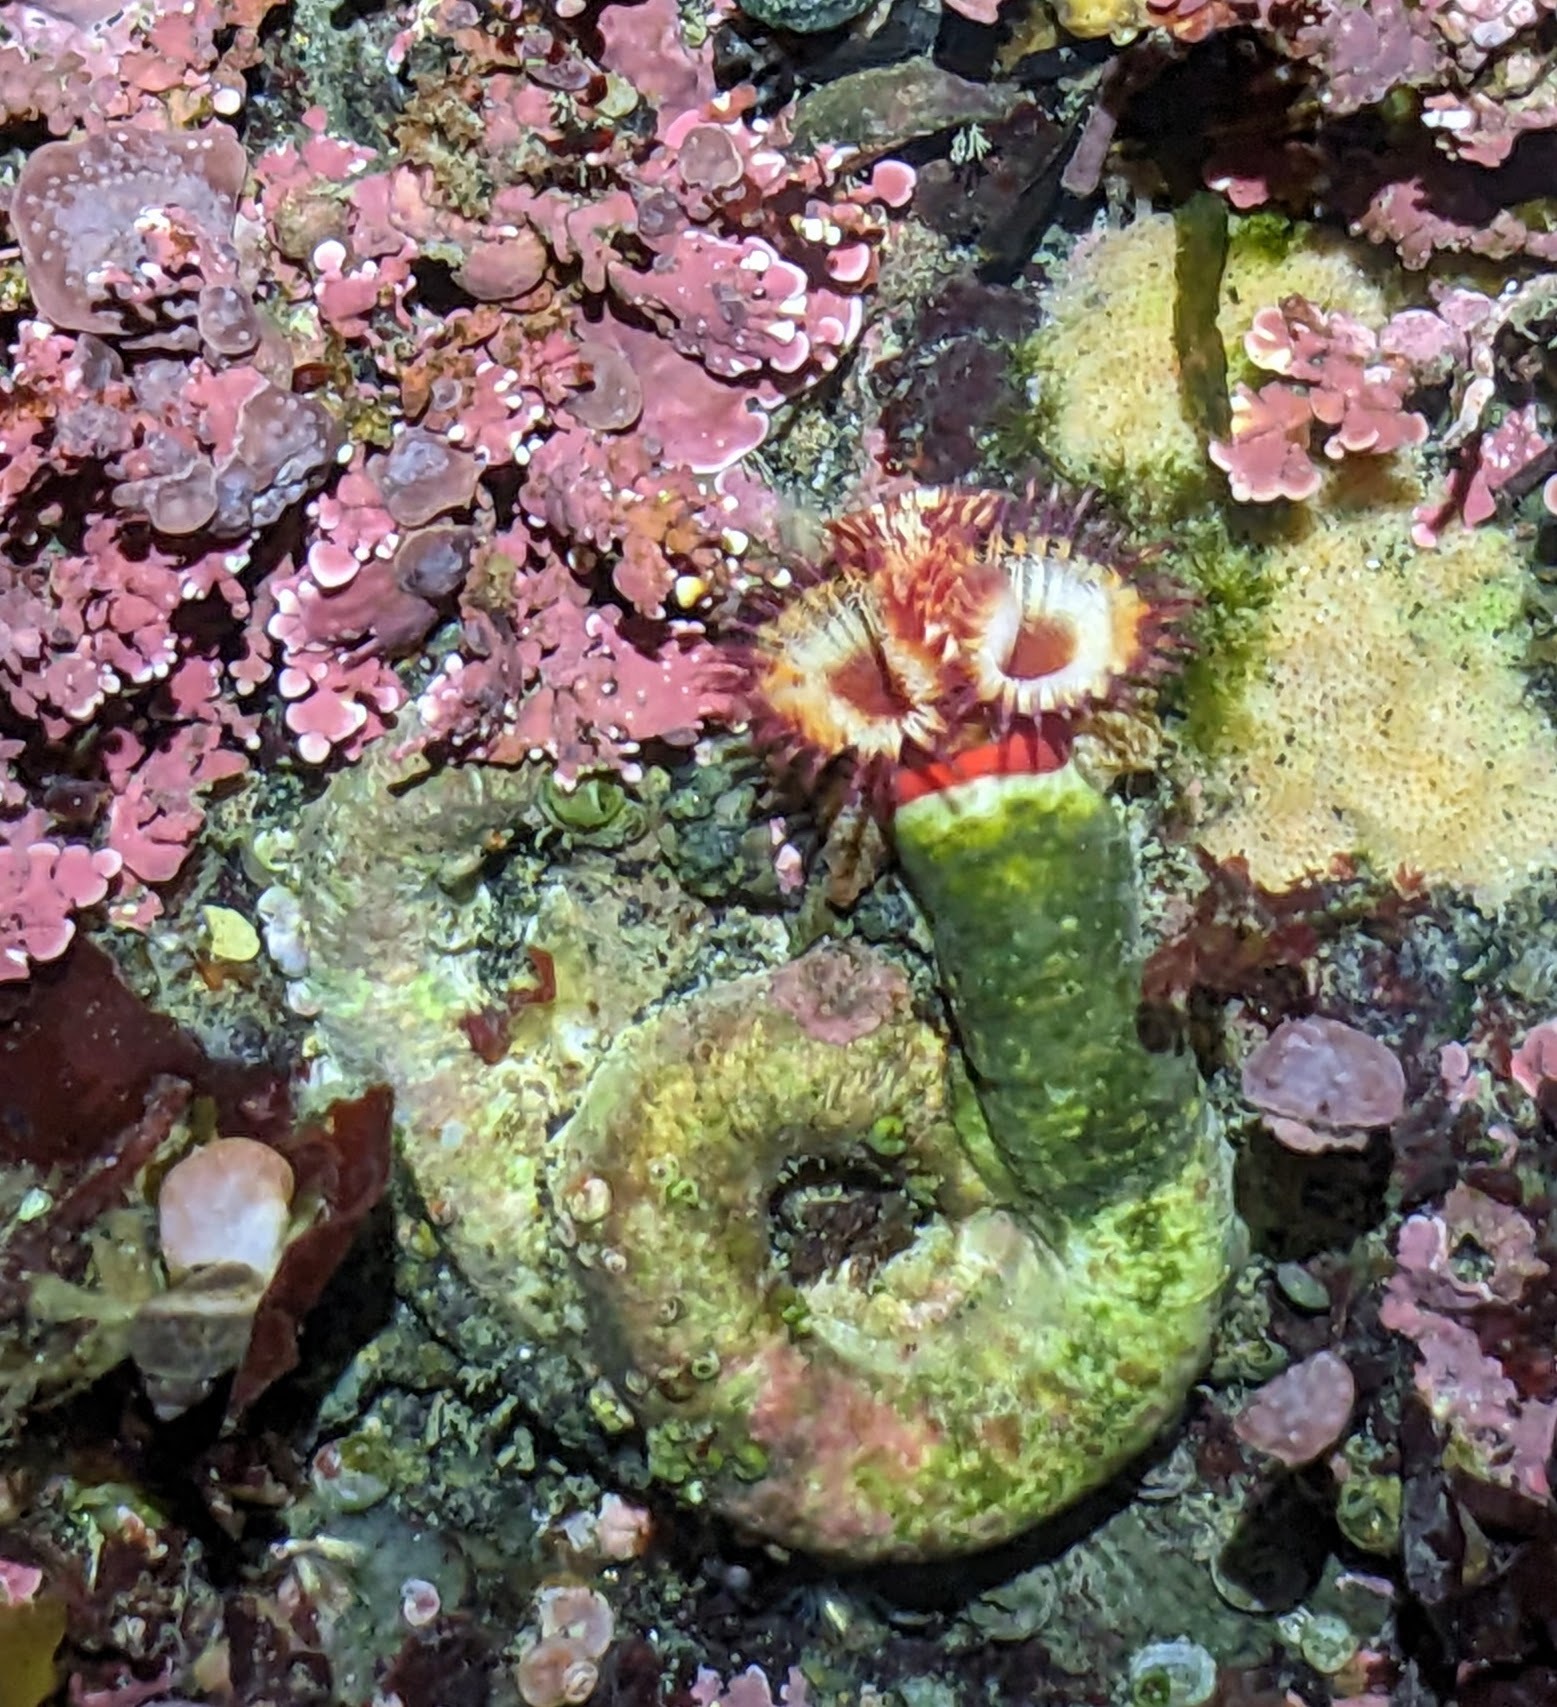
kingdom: Animalia
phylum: Annelida
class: Polychaeta
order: Sabellida
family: Serpulidae
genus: Serpula
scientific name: Serpula columbiana
